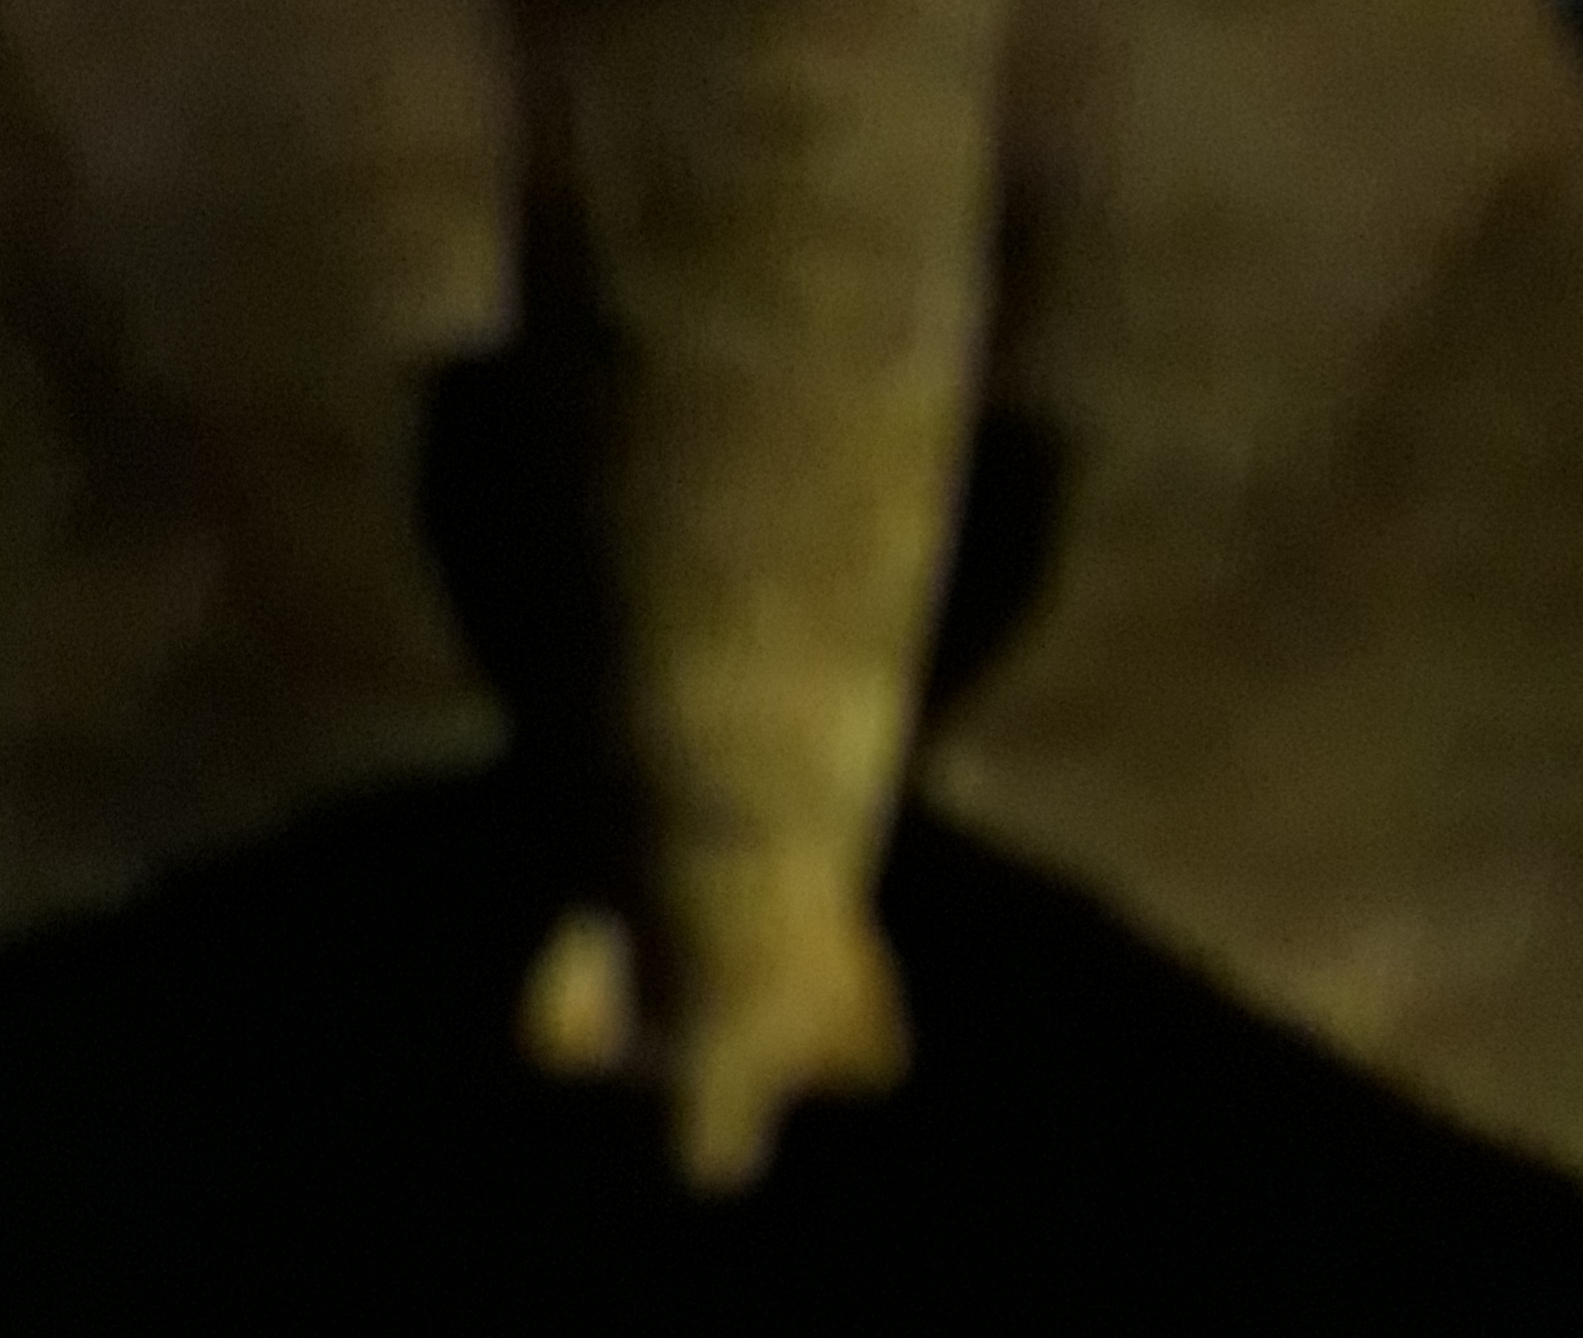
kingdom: Animalia
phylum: Arthropoda
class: Insecta
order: Lepidoptera
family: Sphingidae
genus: Pachylioides
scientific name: Pachylioides resumens
